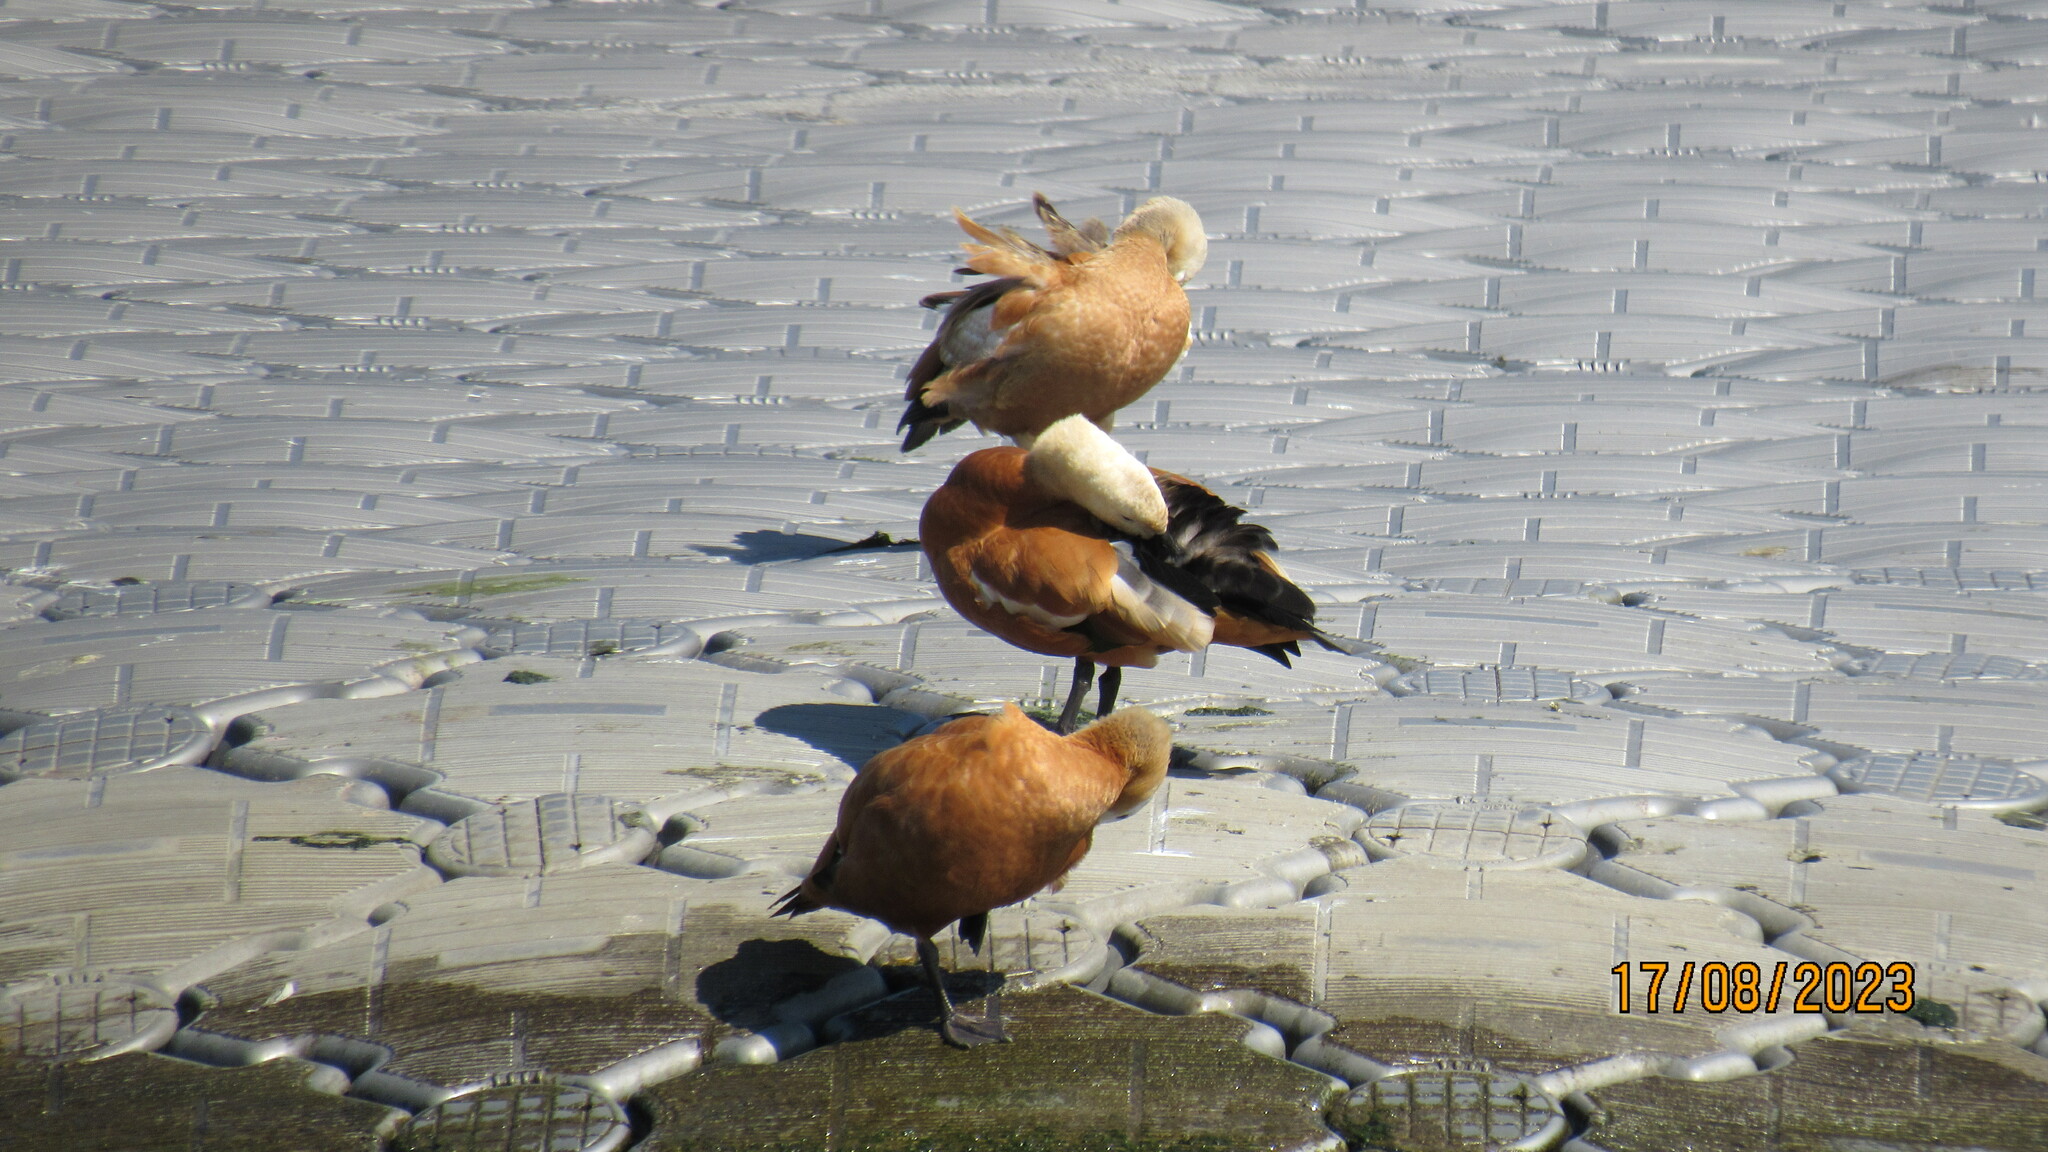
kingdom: Animalia
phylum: Chordata
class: Aves
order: Anseriformes
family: Anatidae
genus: Tadorna
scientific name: Tadorna ferruginea
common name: Ruddy shelduck
